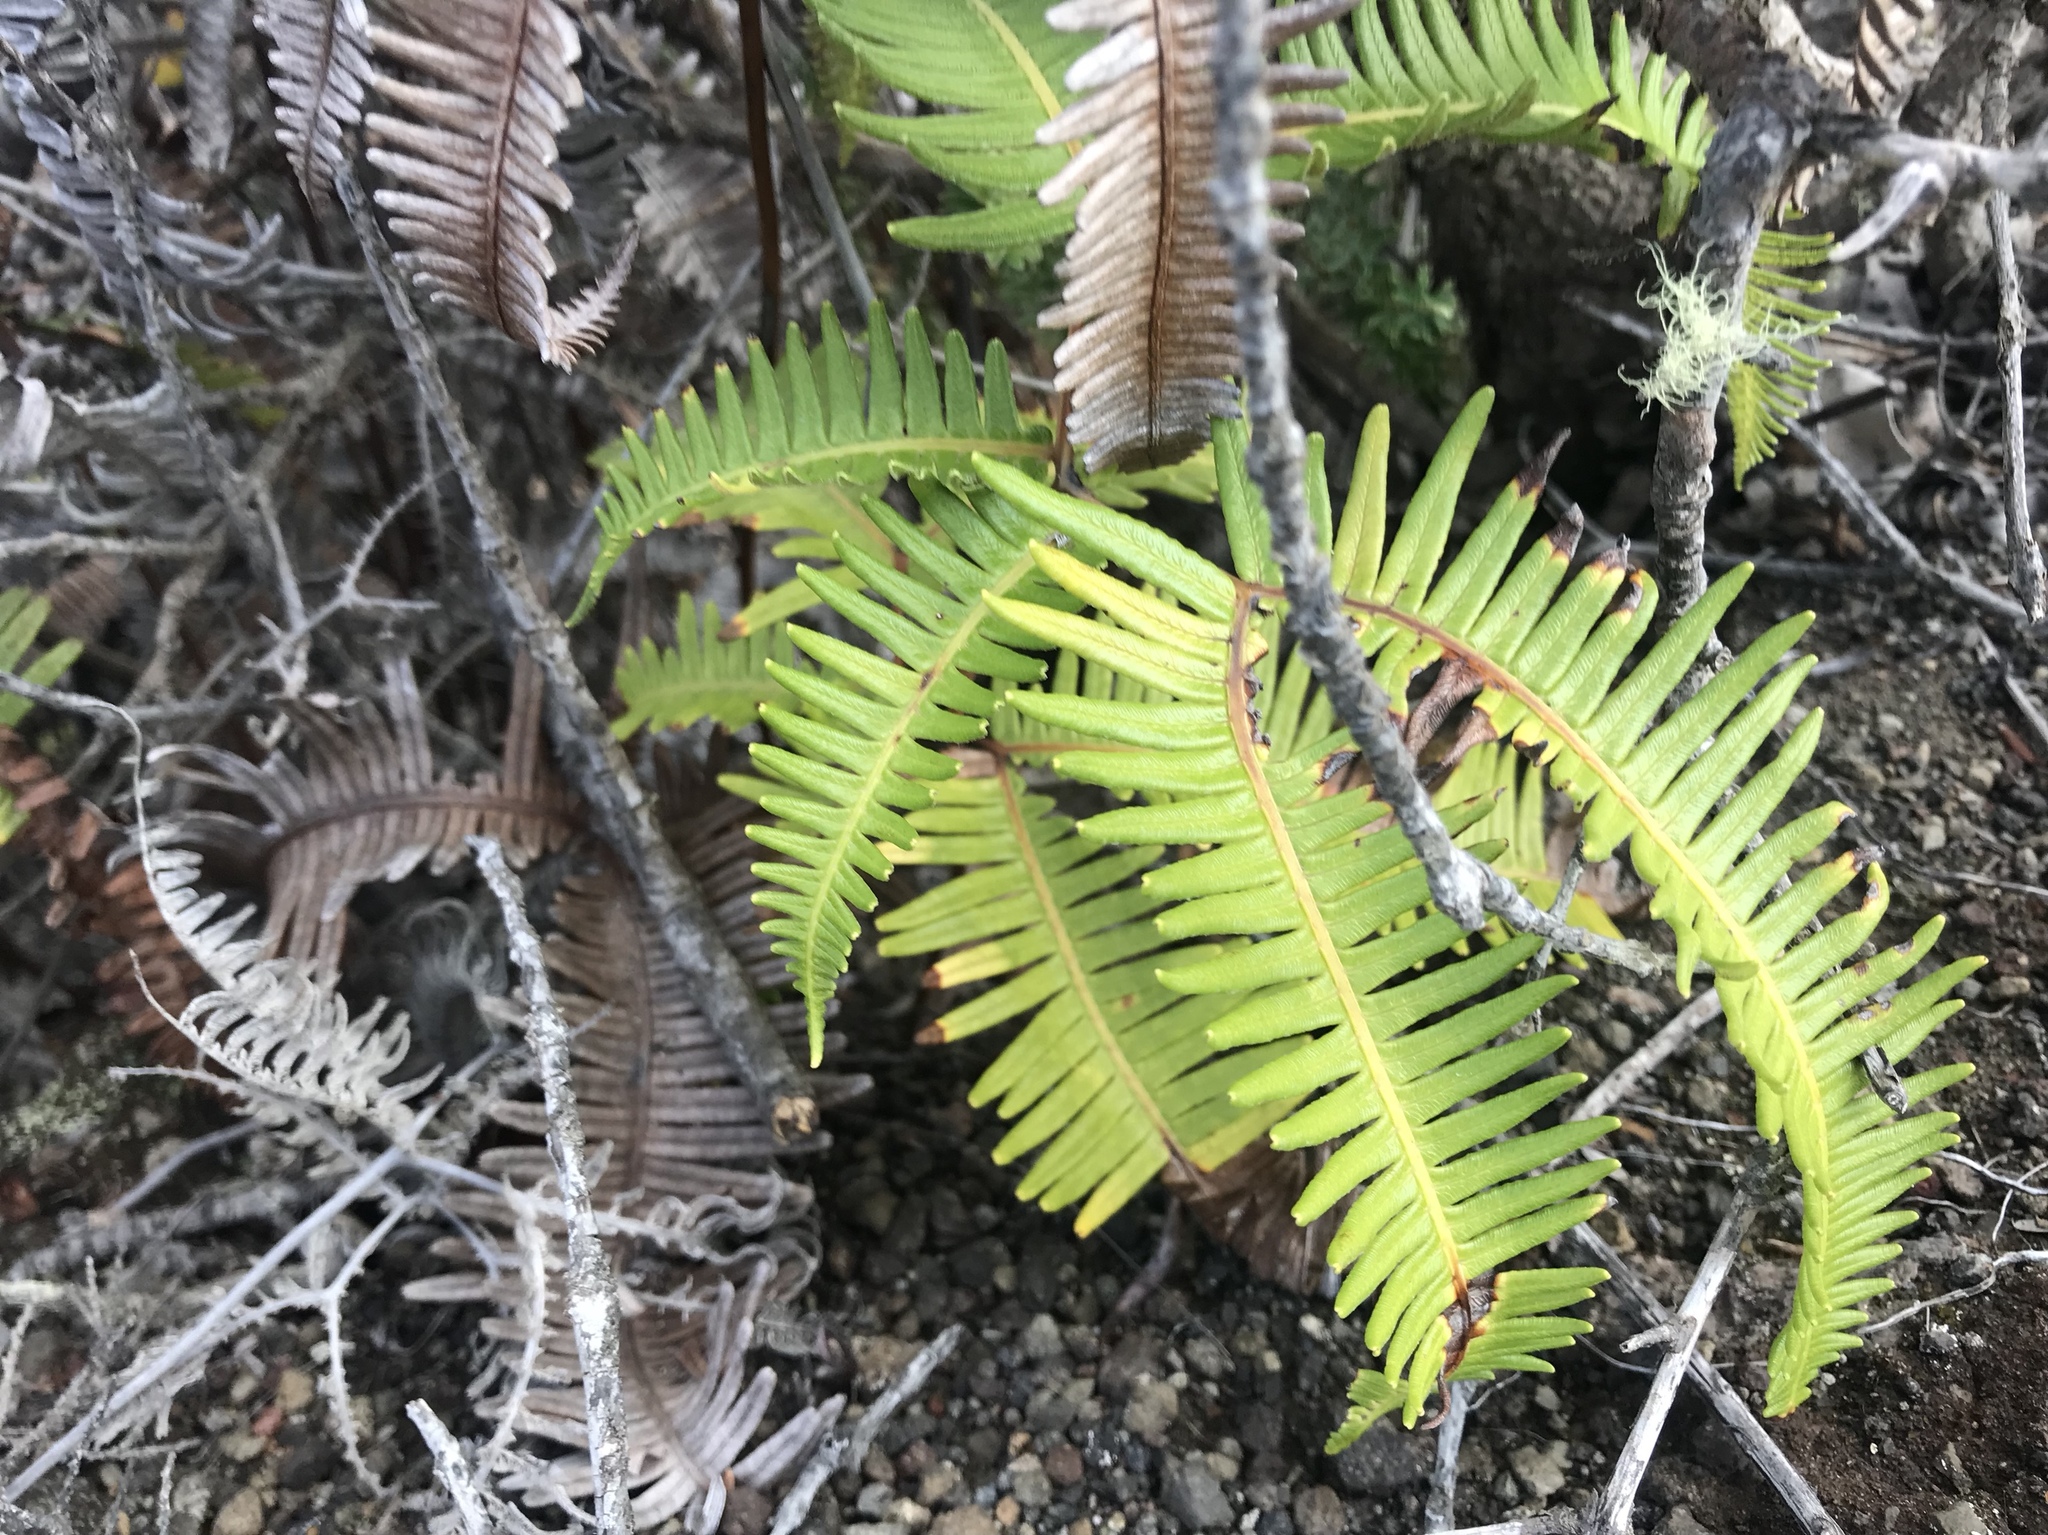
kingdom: Plantae
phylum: Tracheophyta
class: Polypodiopsida
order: Gleicheniales
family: Gleicheniaceae
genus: Dicranopteris
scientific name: Dicranopteris linearis
